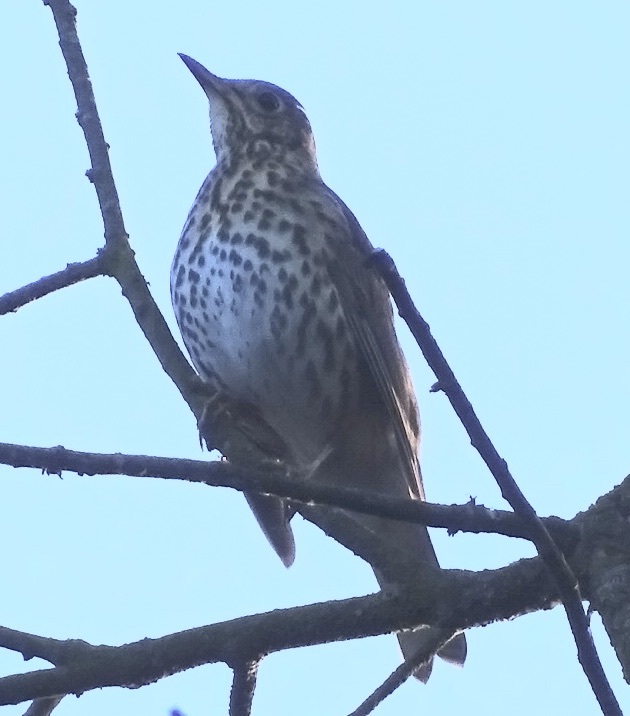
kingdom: Animalia
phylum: Chordata
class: Aves
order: Passeriformes
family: Turdidae
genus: Turdus
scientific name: Turdus philomelos
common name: Song thrush
